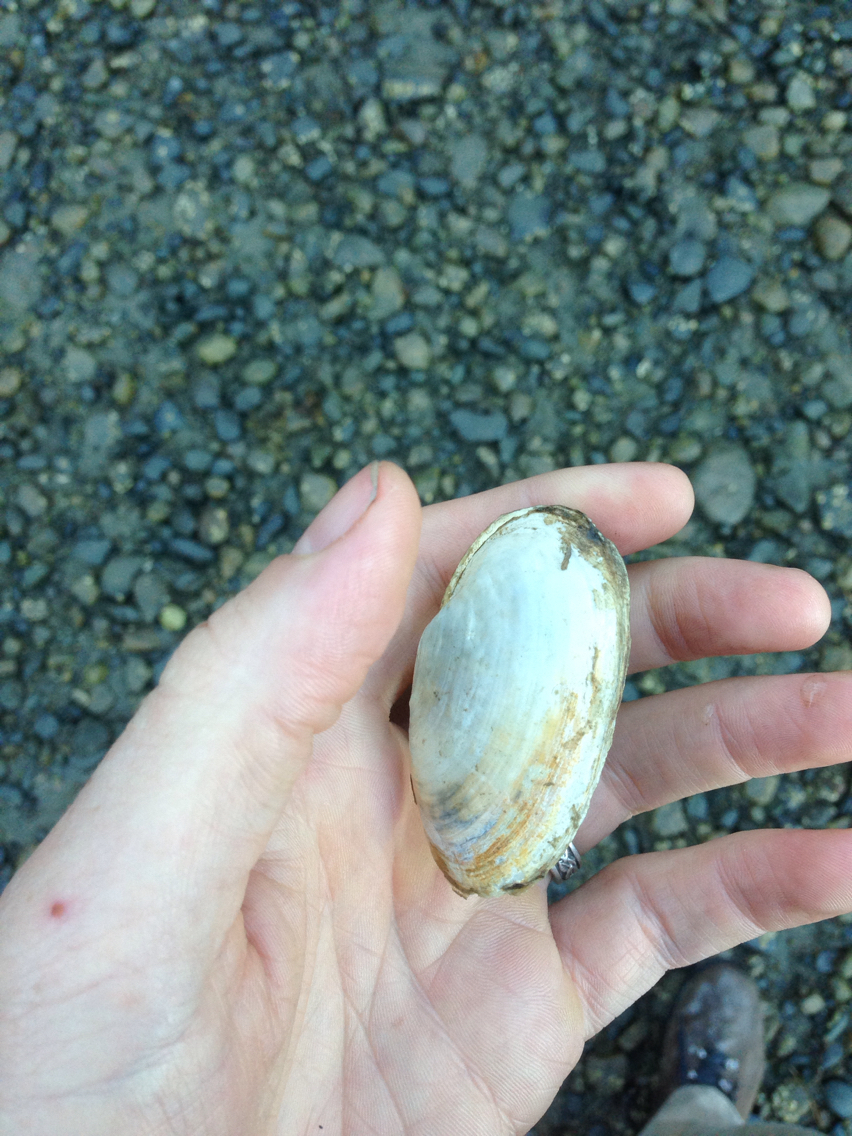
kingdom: Animalia
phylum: Mollusca
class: Bivalvia
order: Myida
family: Myidae
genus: Mya
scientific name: Mya arenaria
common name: Soft-shelled clam
